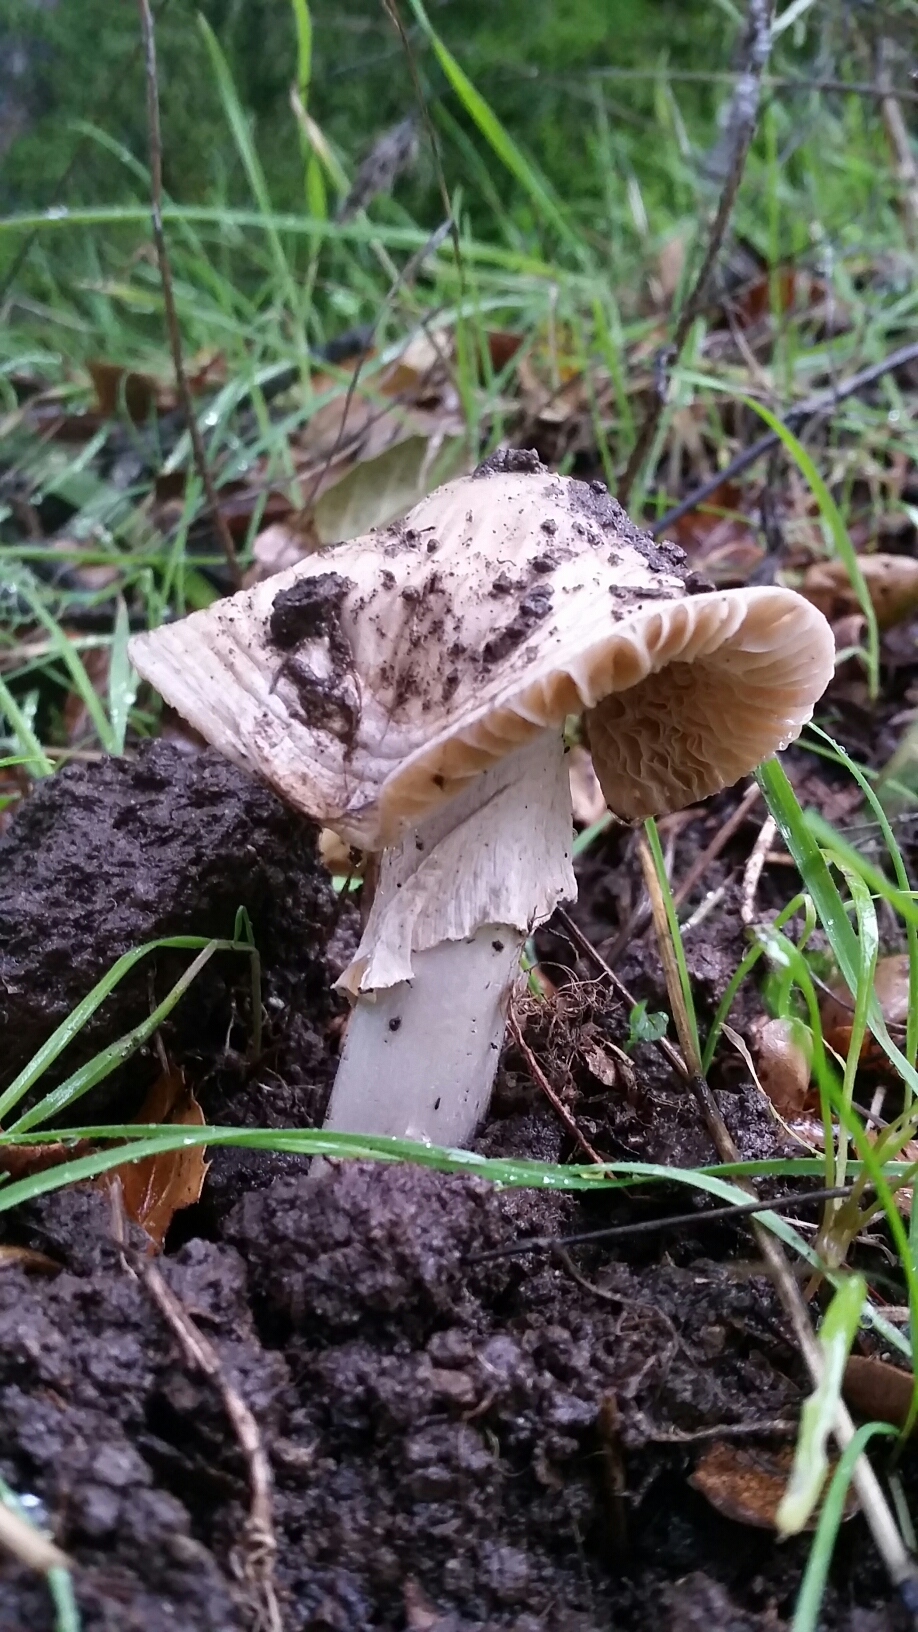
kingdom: Fungi
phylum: Basidiomycota
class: Agaricomycetes
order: Agaricales
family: Amanitaceae
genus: Amanita
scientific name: Amanita phalloides
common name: Death cap
